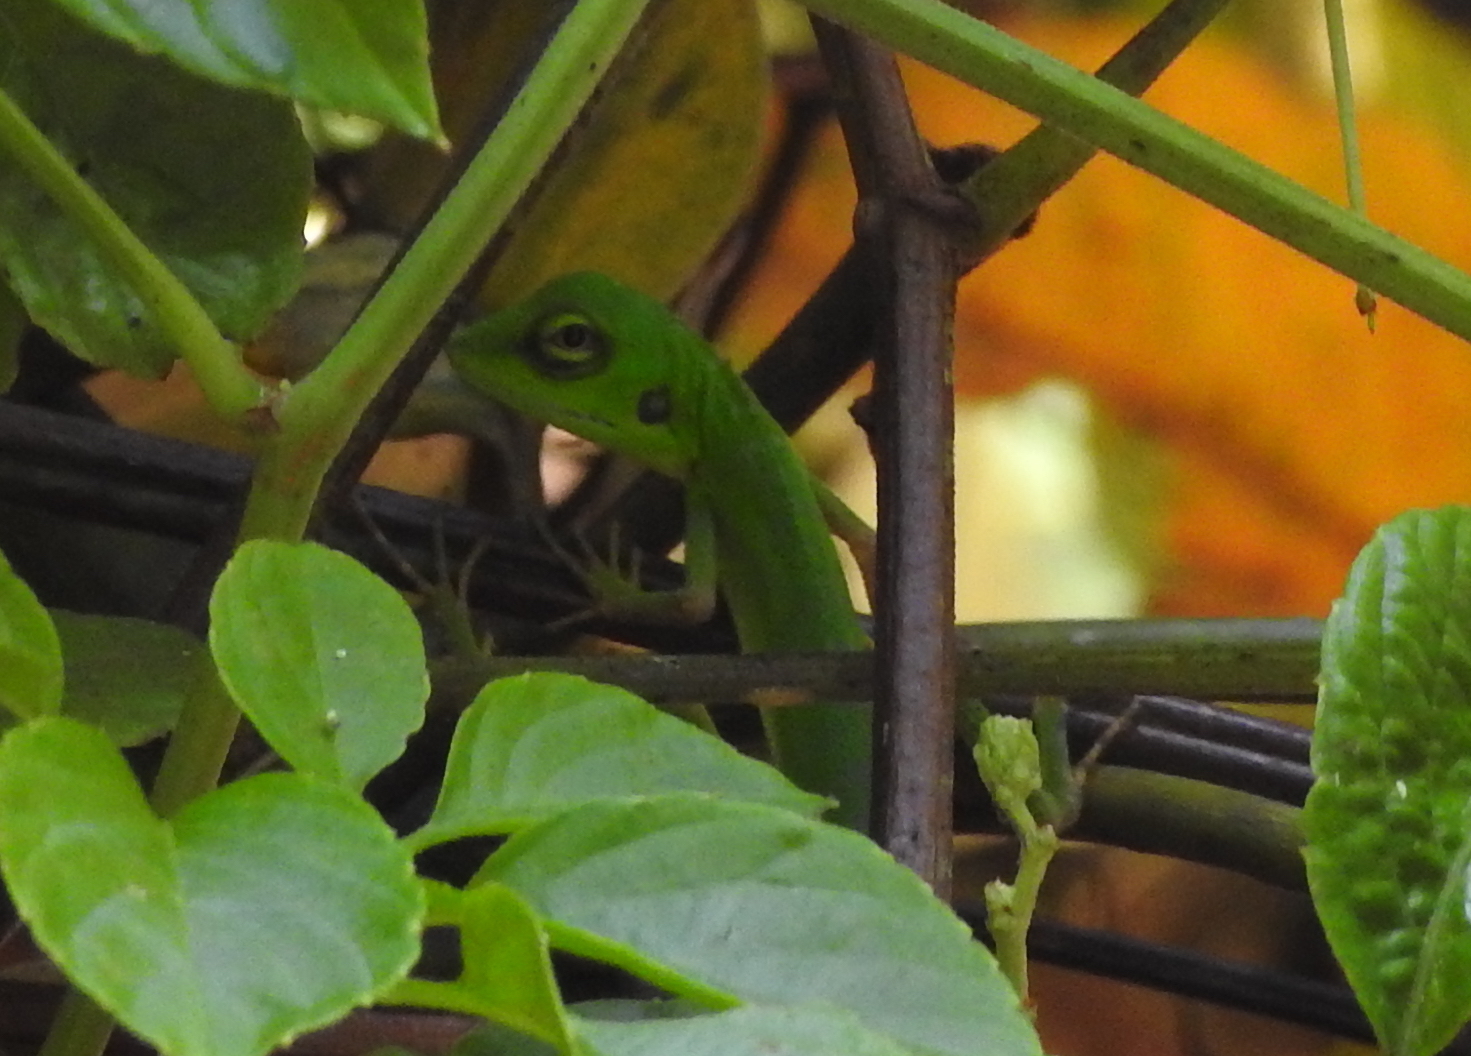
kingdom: Animalia
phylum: Chordata
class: Squamata
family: Agamidae
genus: Bronchocela
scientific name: Bronchocela cristatella
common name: Green crested lizard
